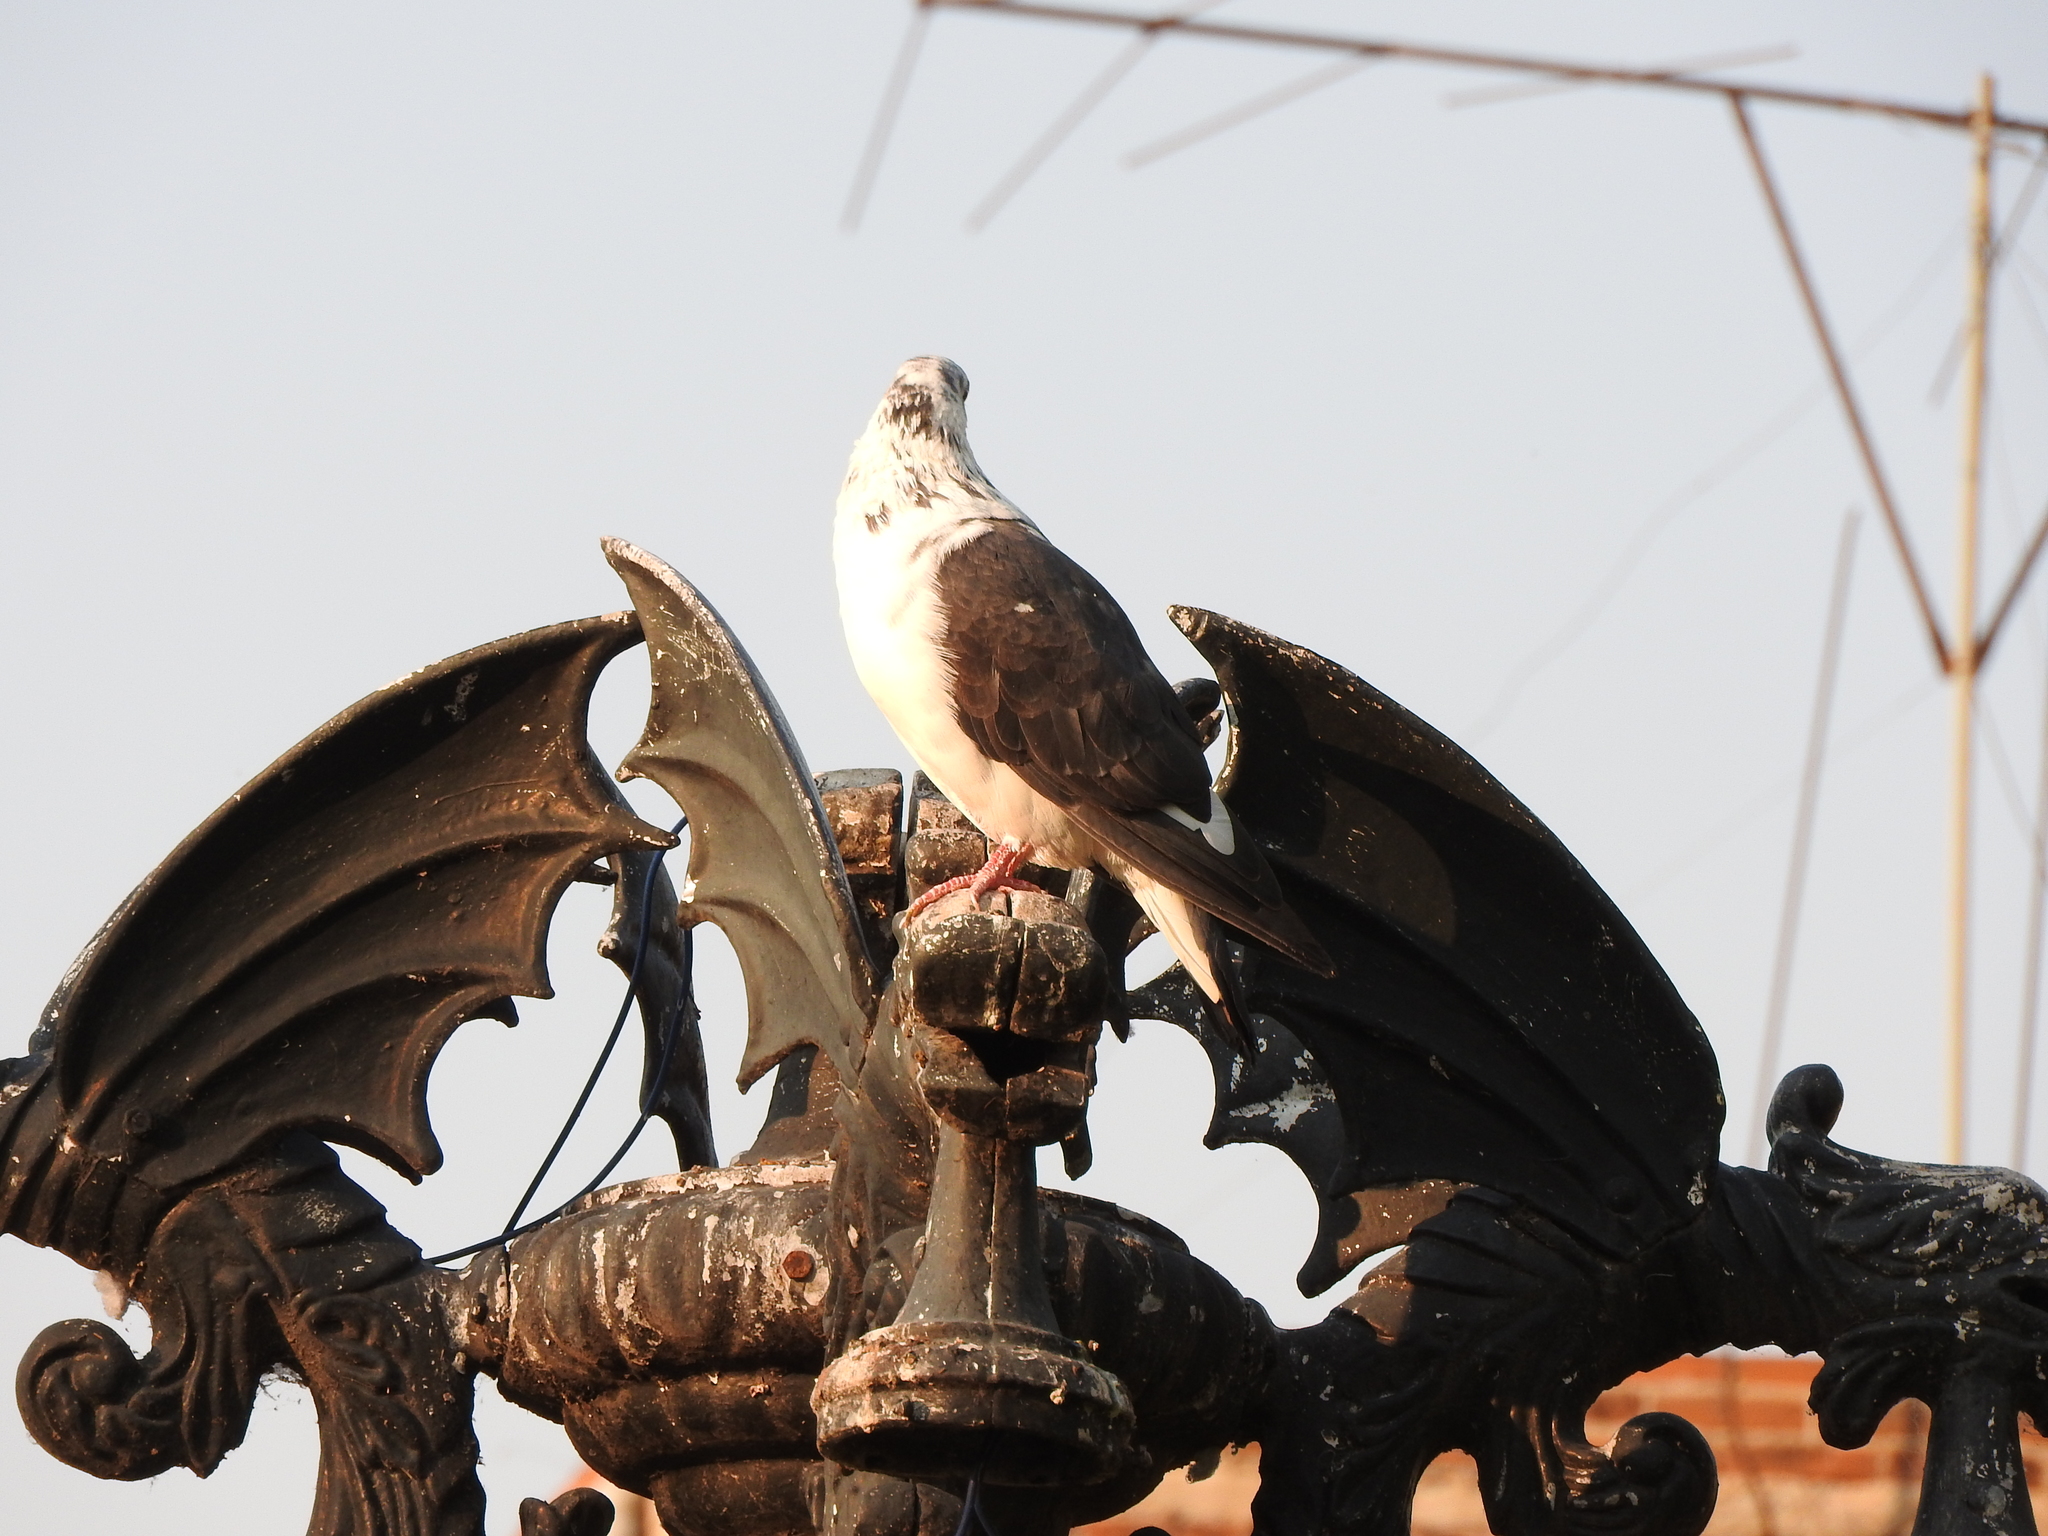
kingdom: Animalia
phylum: Chordata
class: Aves
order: Columbiformes
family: Columbidae
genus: Columba
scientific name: Columba livia
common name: Rock pigeon
